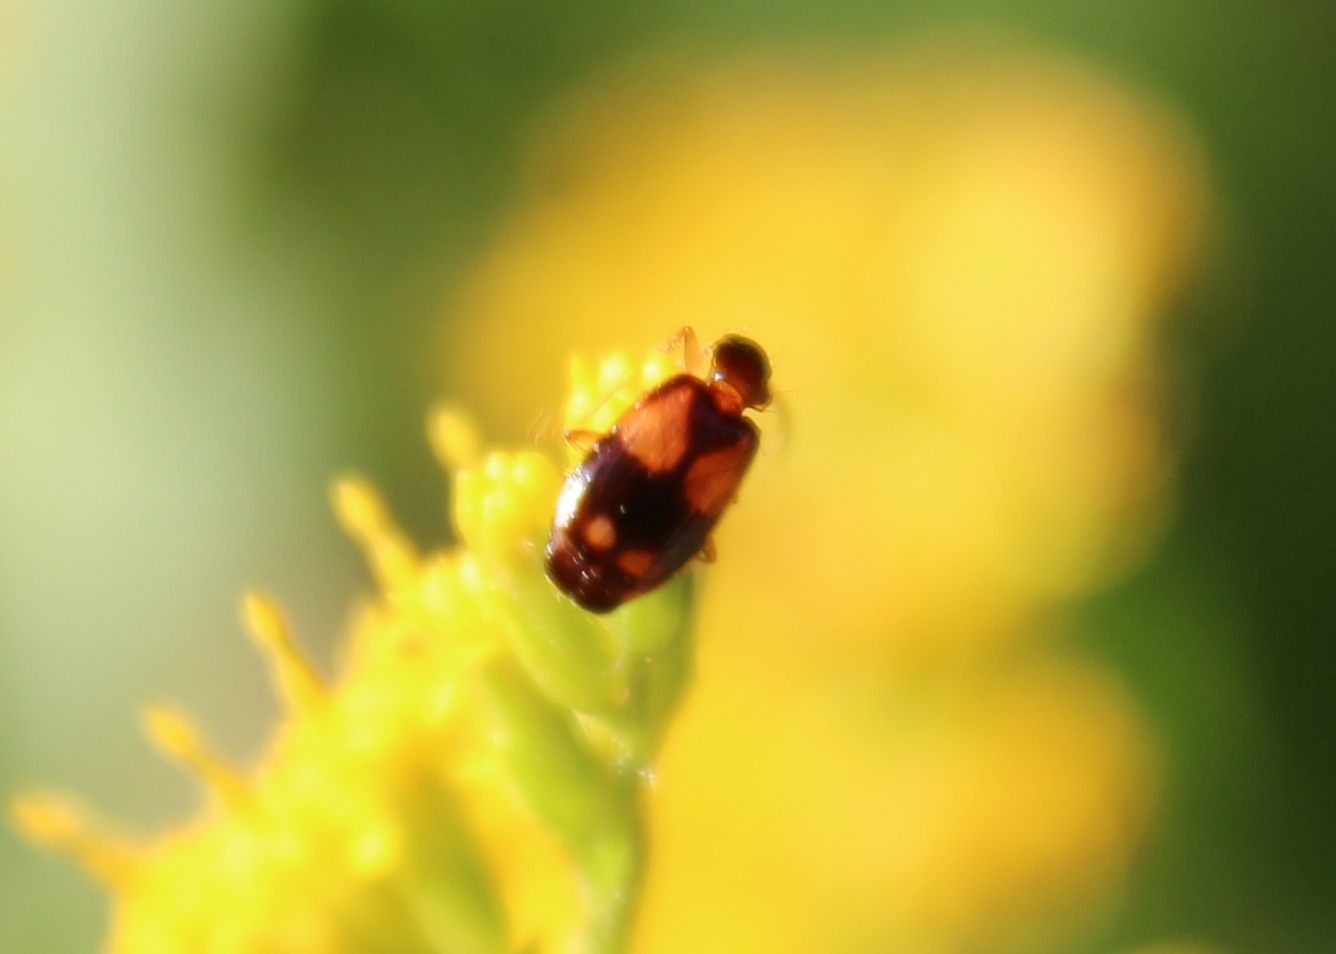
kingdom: Animalia
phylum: Arthropoda
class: Insecta
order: Coleoptera
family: Carabidae
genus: Lebia
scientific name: Lebia ornata
